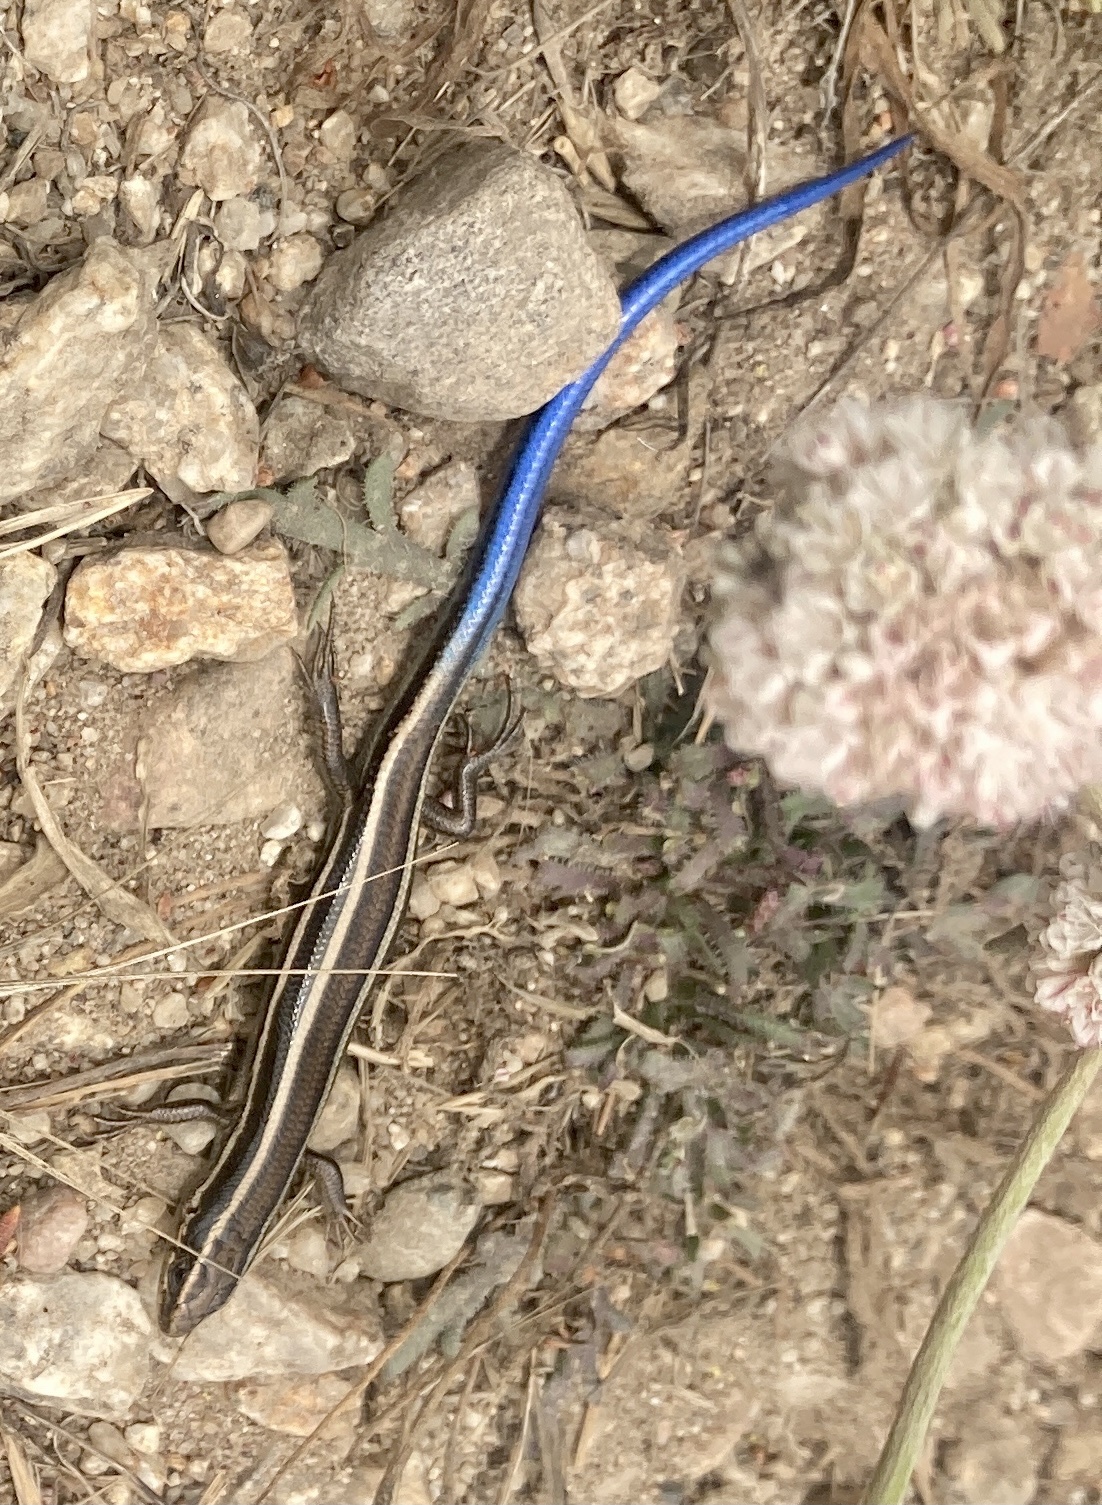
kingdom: Animalia
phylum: Chordata
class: Squamata
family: Scincidae
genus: Plestiodon
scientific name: Plestiodon skiltonianus
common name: Coronado island skink [interparietalis]
